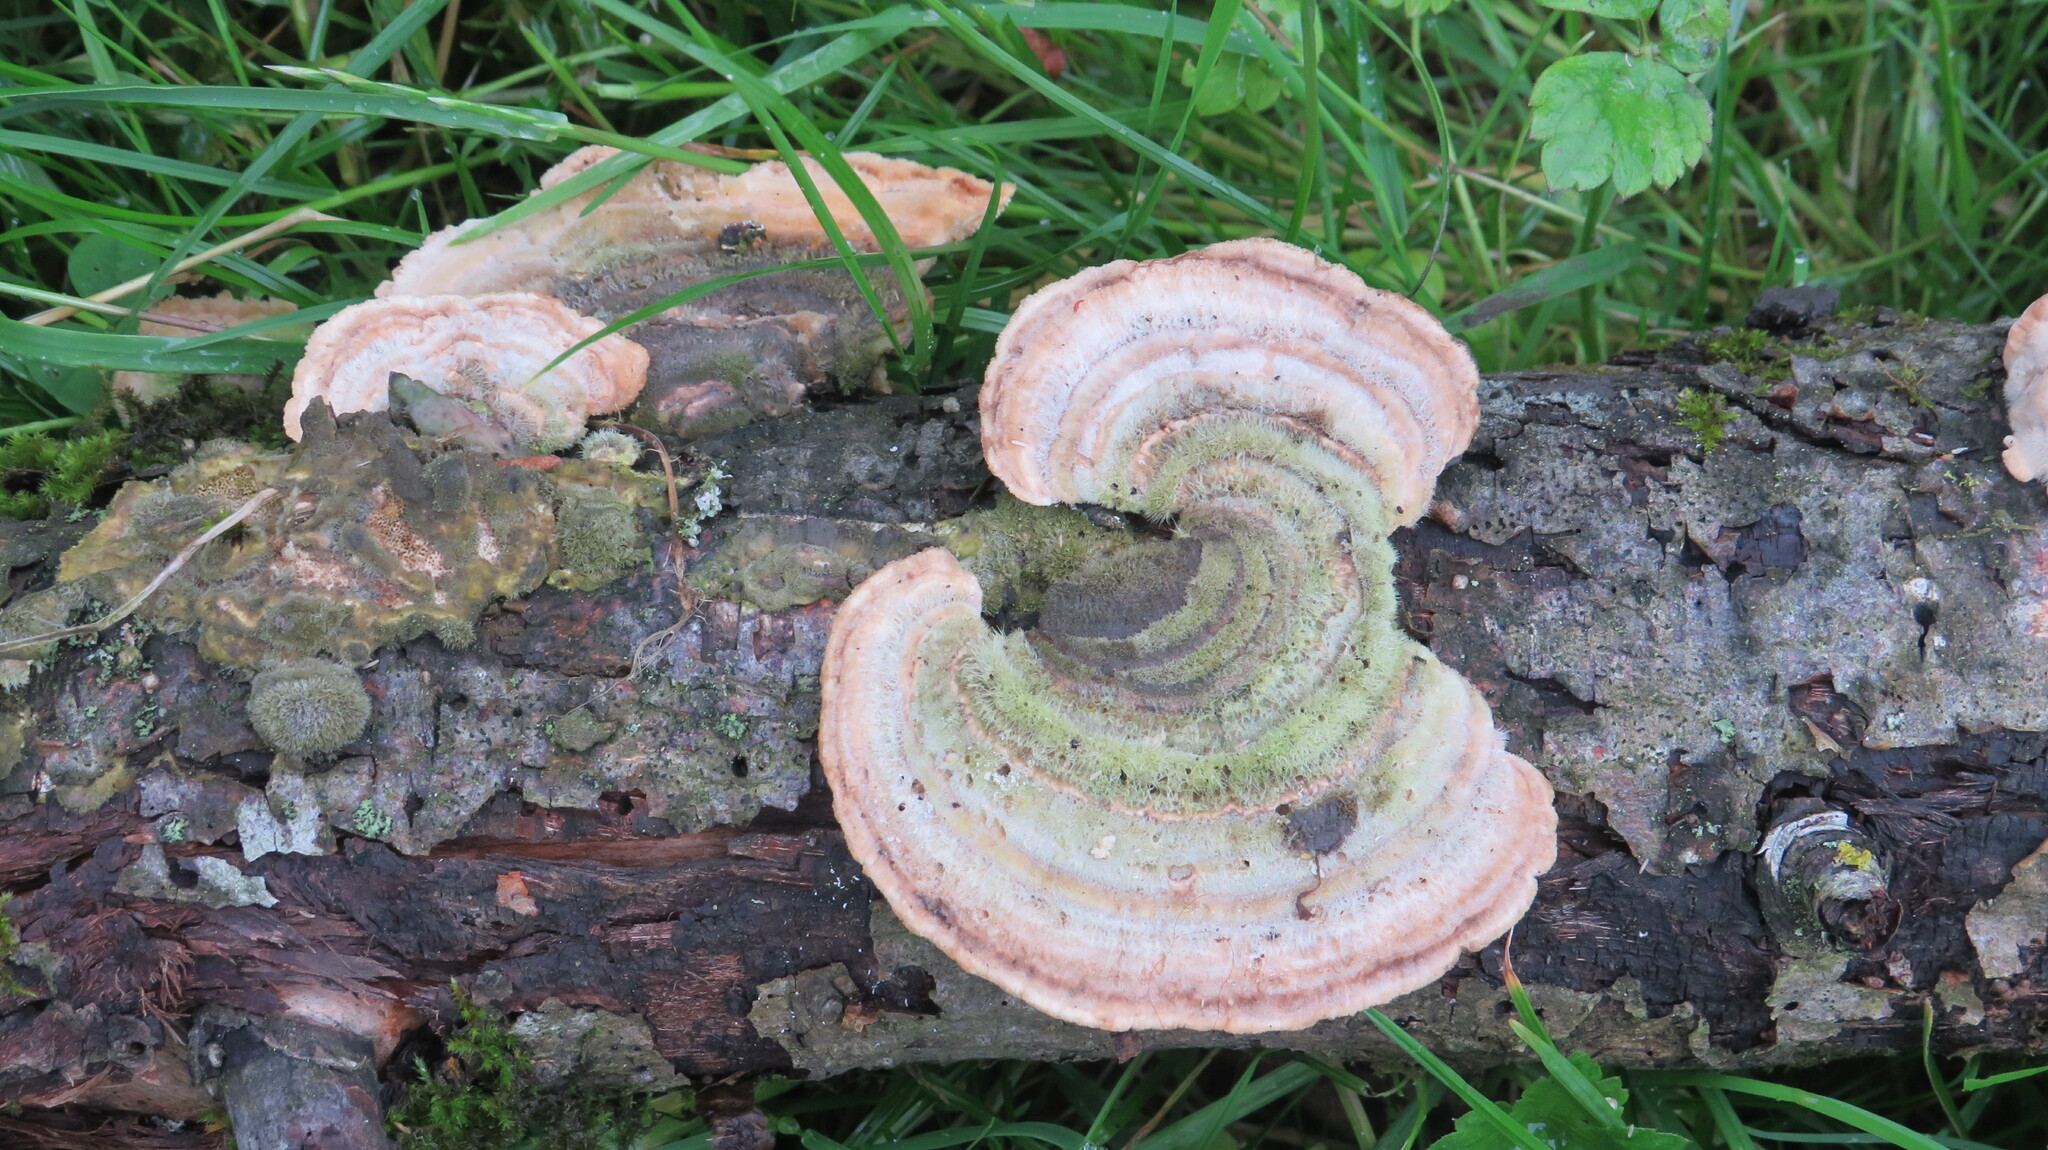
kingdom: Fungi
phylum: Basidiomycota
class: Agaricomycetes
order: Polyporales
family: Polyporaceae
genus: Trametes
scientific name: Trametes hirsuta
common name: Hairy bracket
